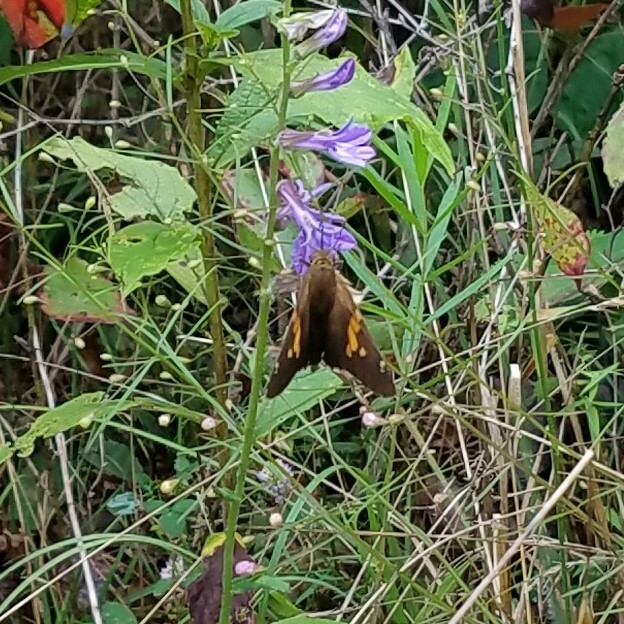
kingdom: Animalia
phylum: Arthropoda
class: Insecta
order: Lepidoptera
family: Hesperiidae
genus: Epargyreus
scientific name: Epargyreus clarus
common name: Silver-spotted skipper
